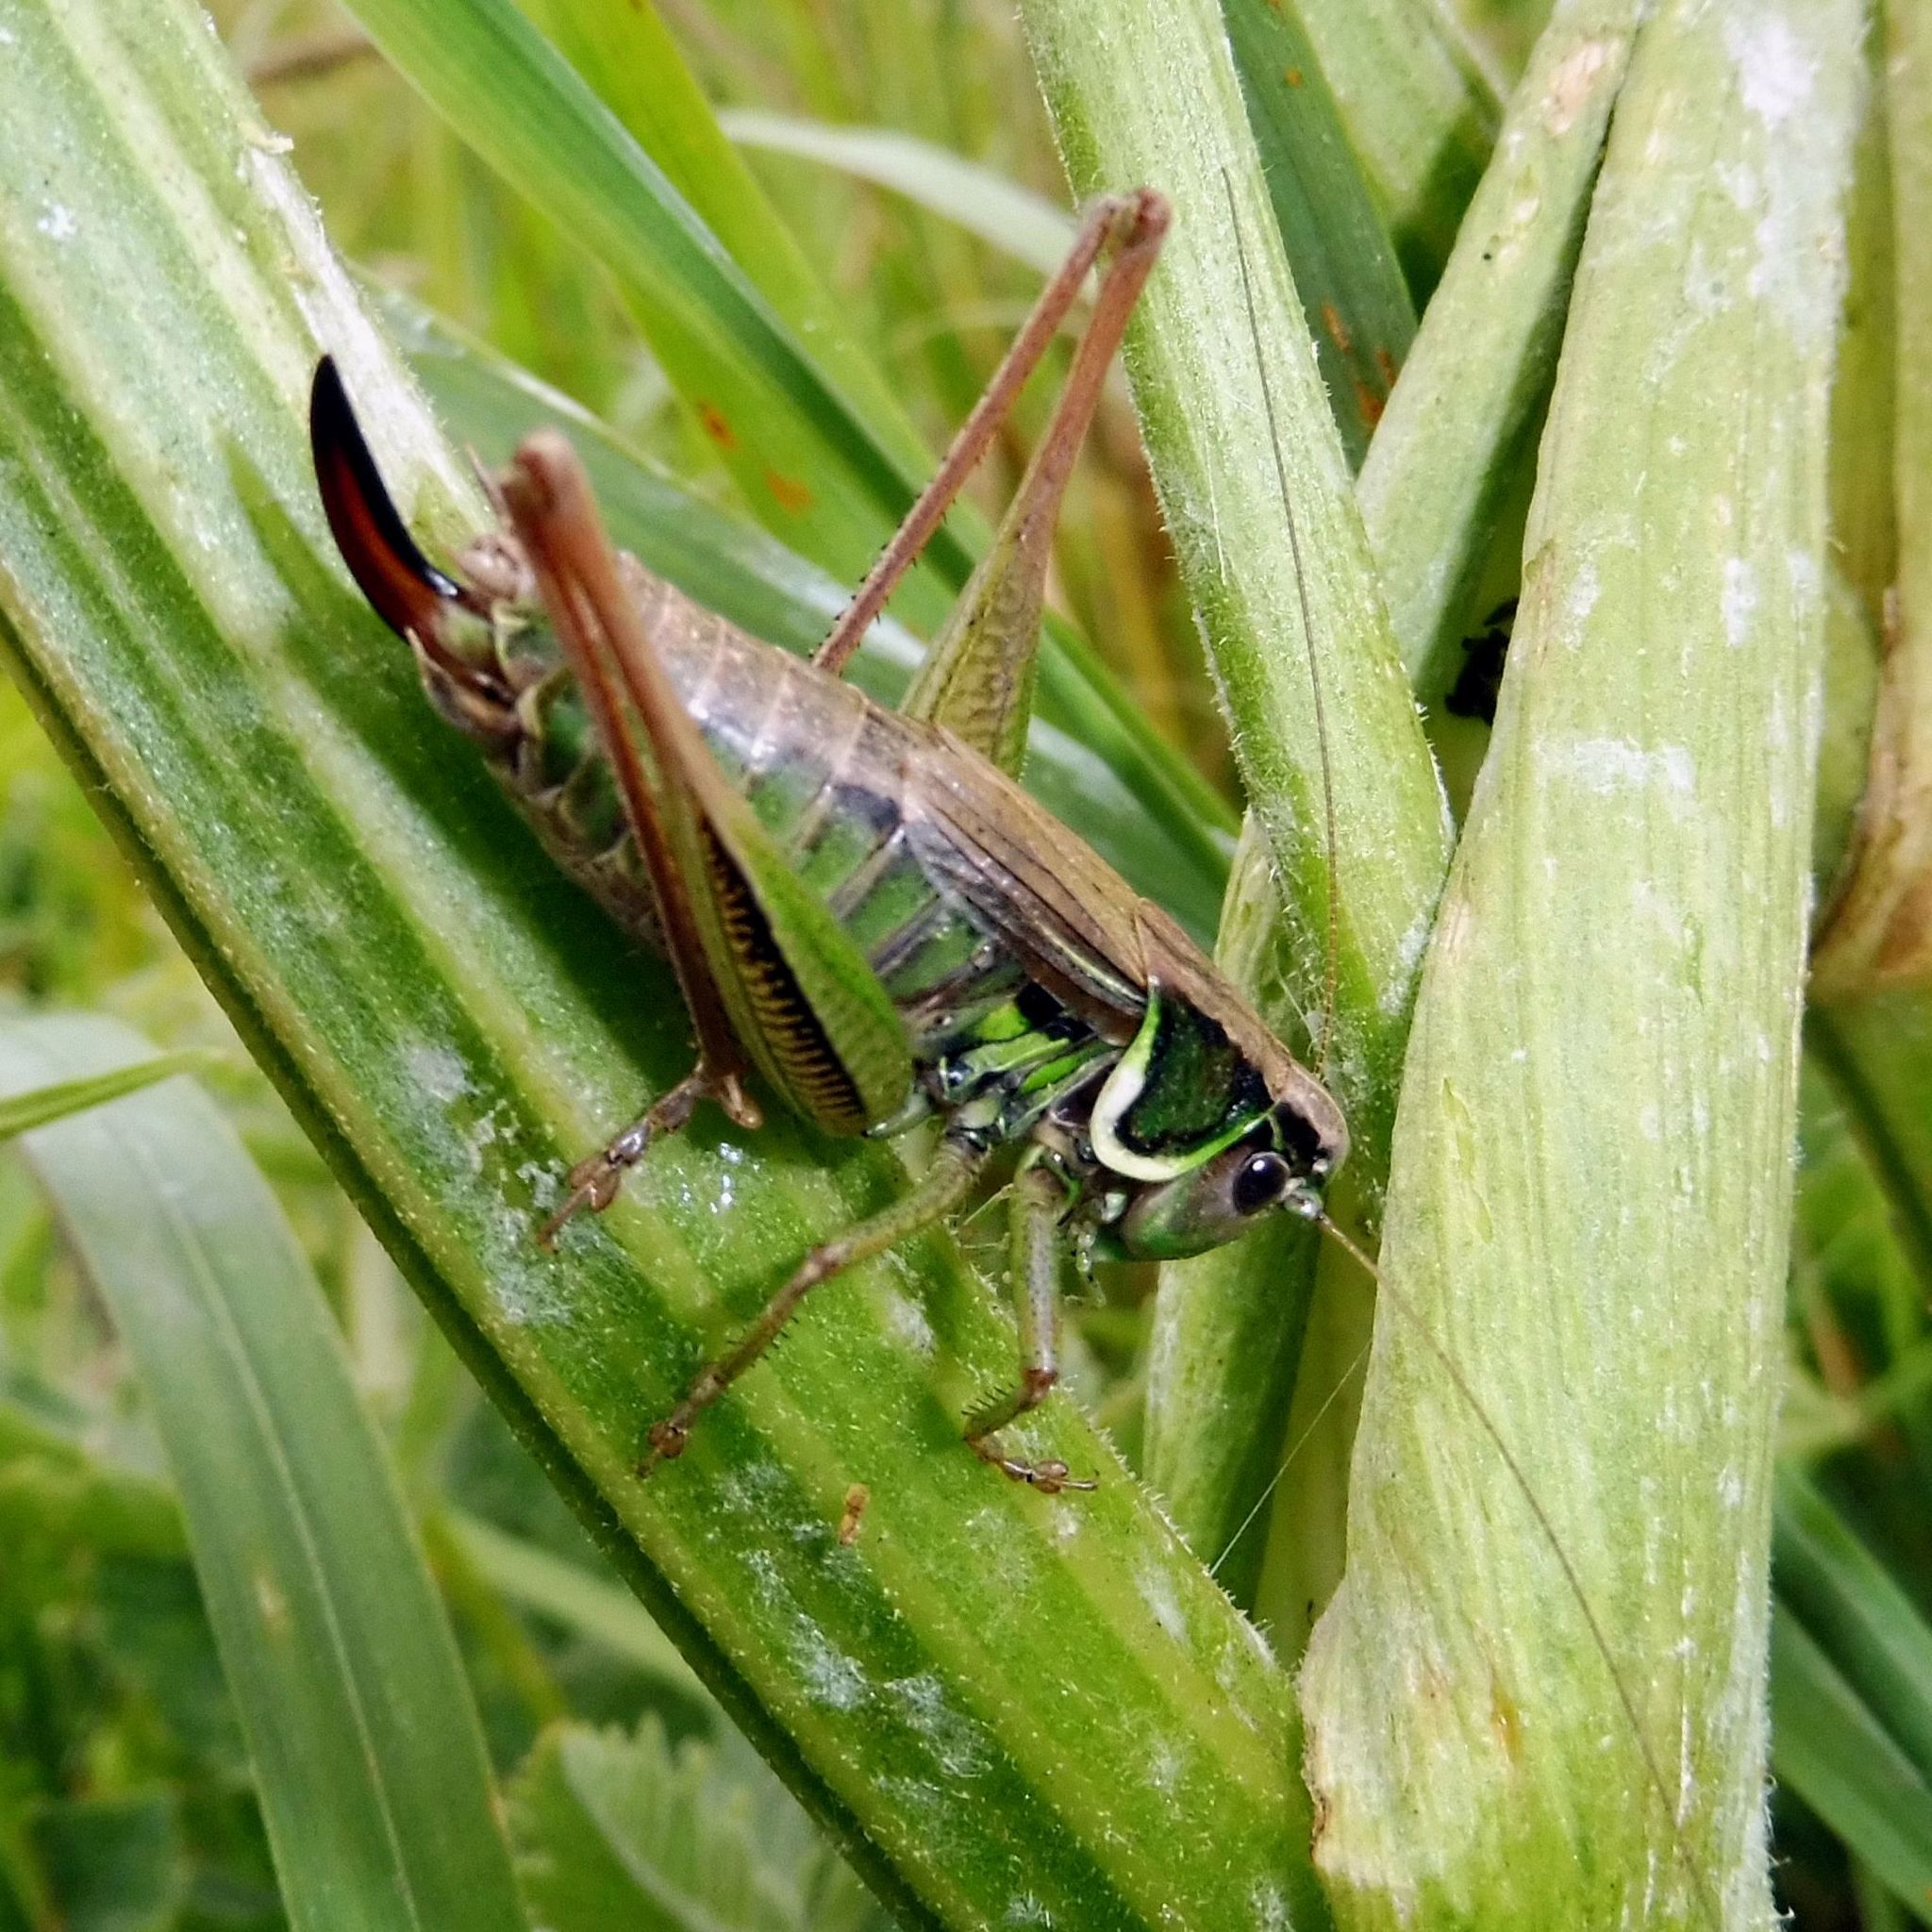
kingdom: Animalia
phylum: Arthropoda
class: Insecta
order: Orthoptera
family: Tettigoniidae
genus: Roeseliana
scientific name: Roeseliana roeselii
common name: Roesel's bush cricket
